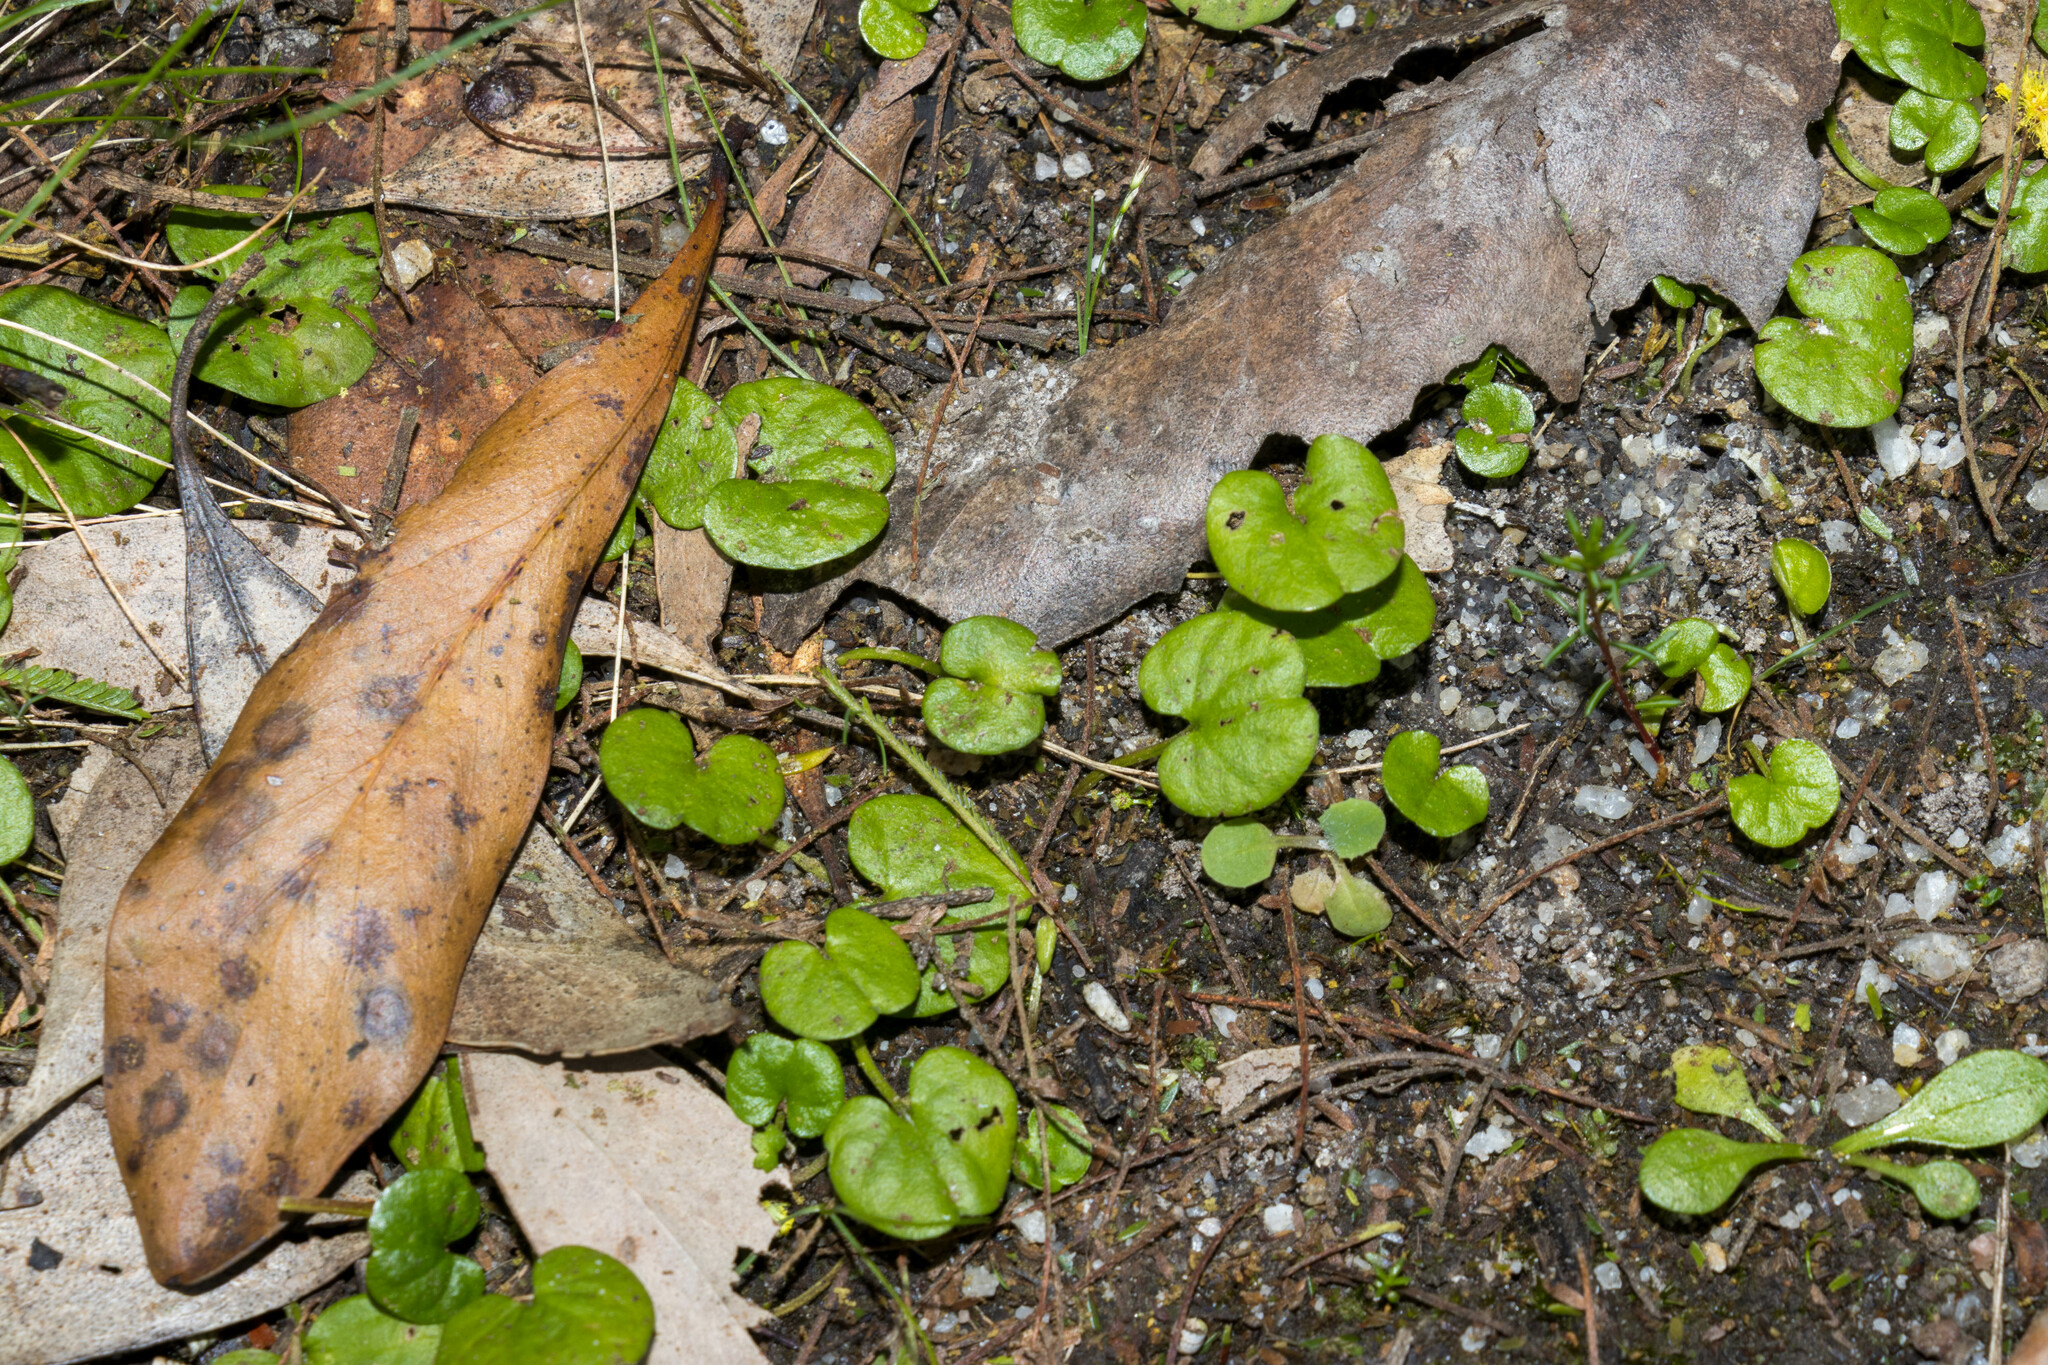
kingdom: Plantae
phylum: Tracheophyta
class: Magnoliopsida
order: Solanales
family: Convolvulaceae
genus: Dichondra
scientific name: Dichondra repens
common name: Kidneyweed
